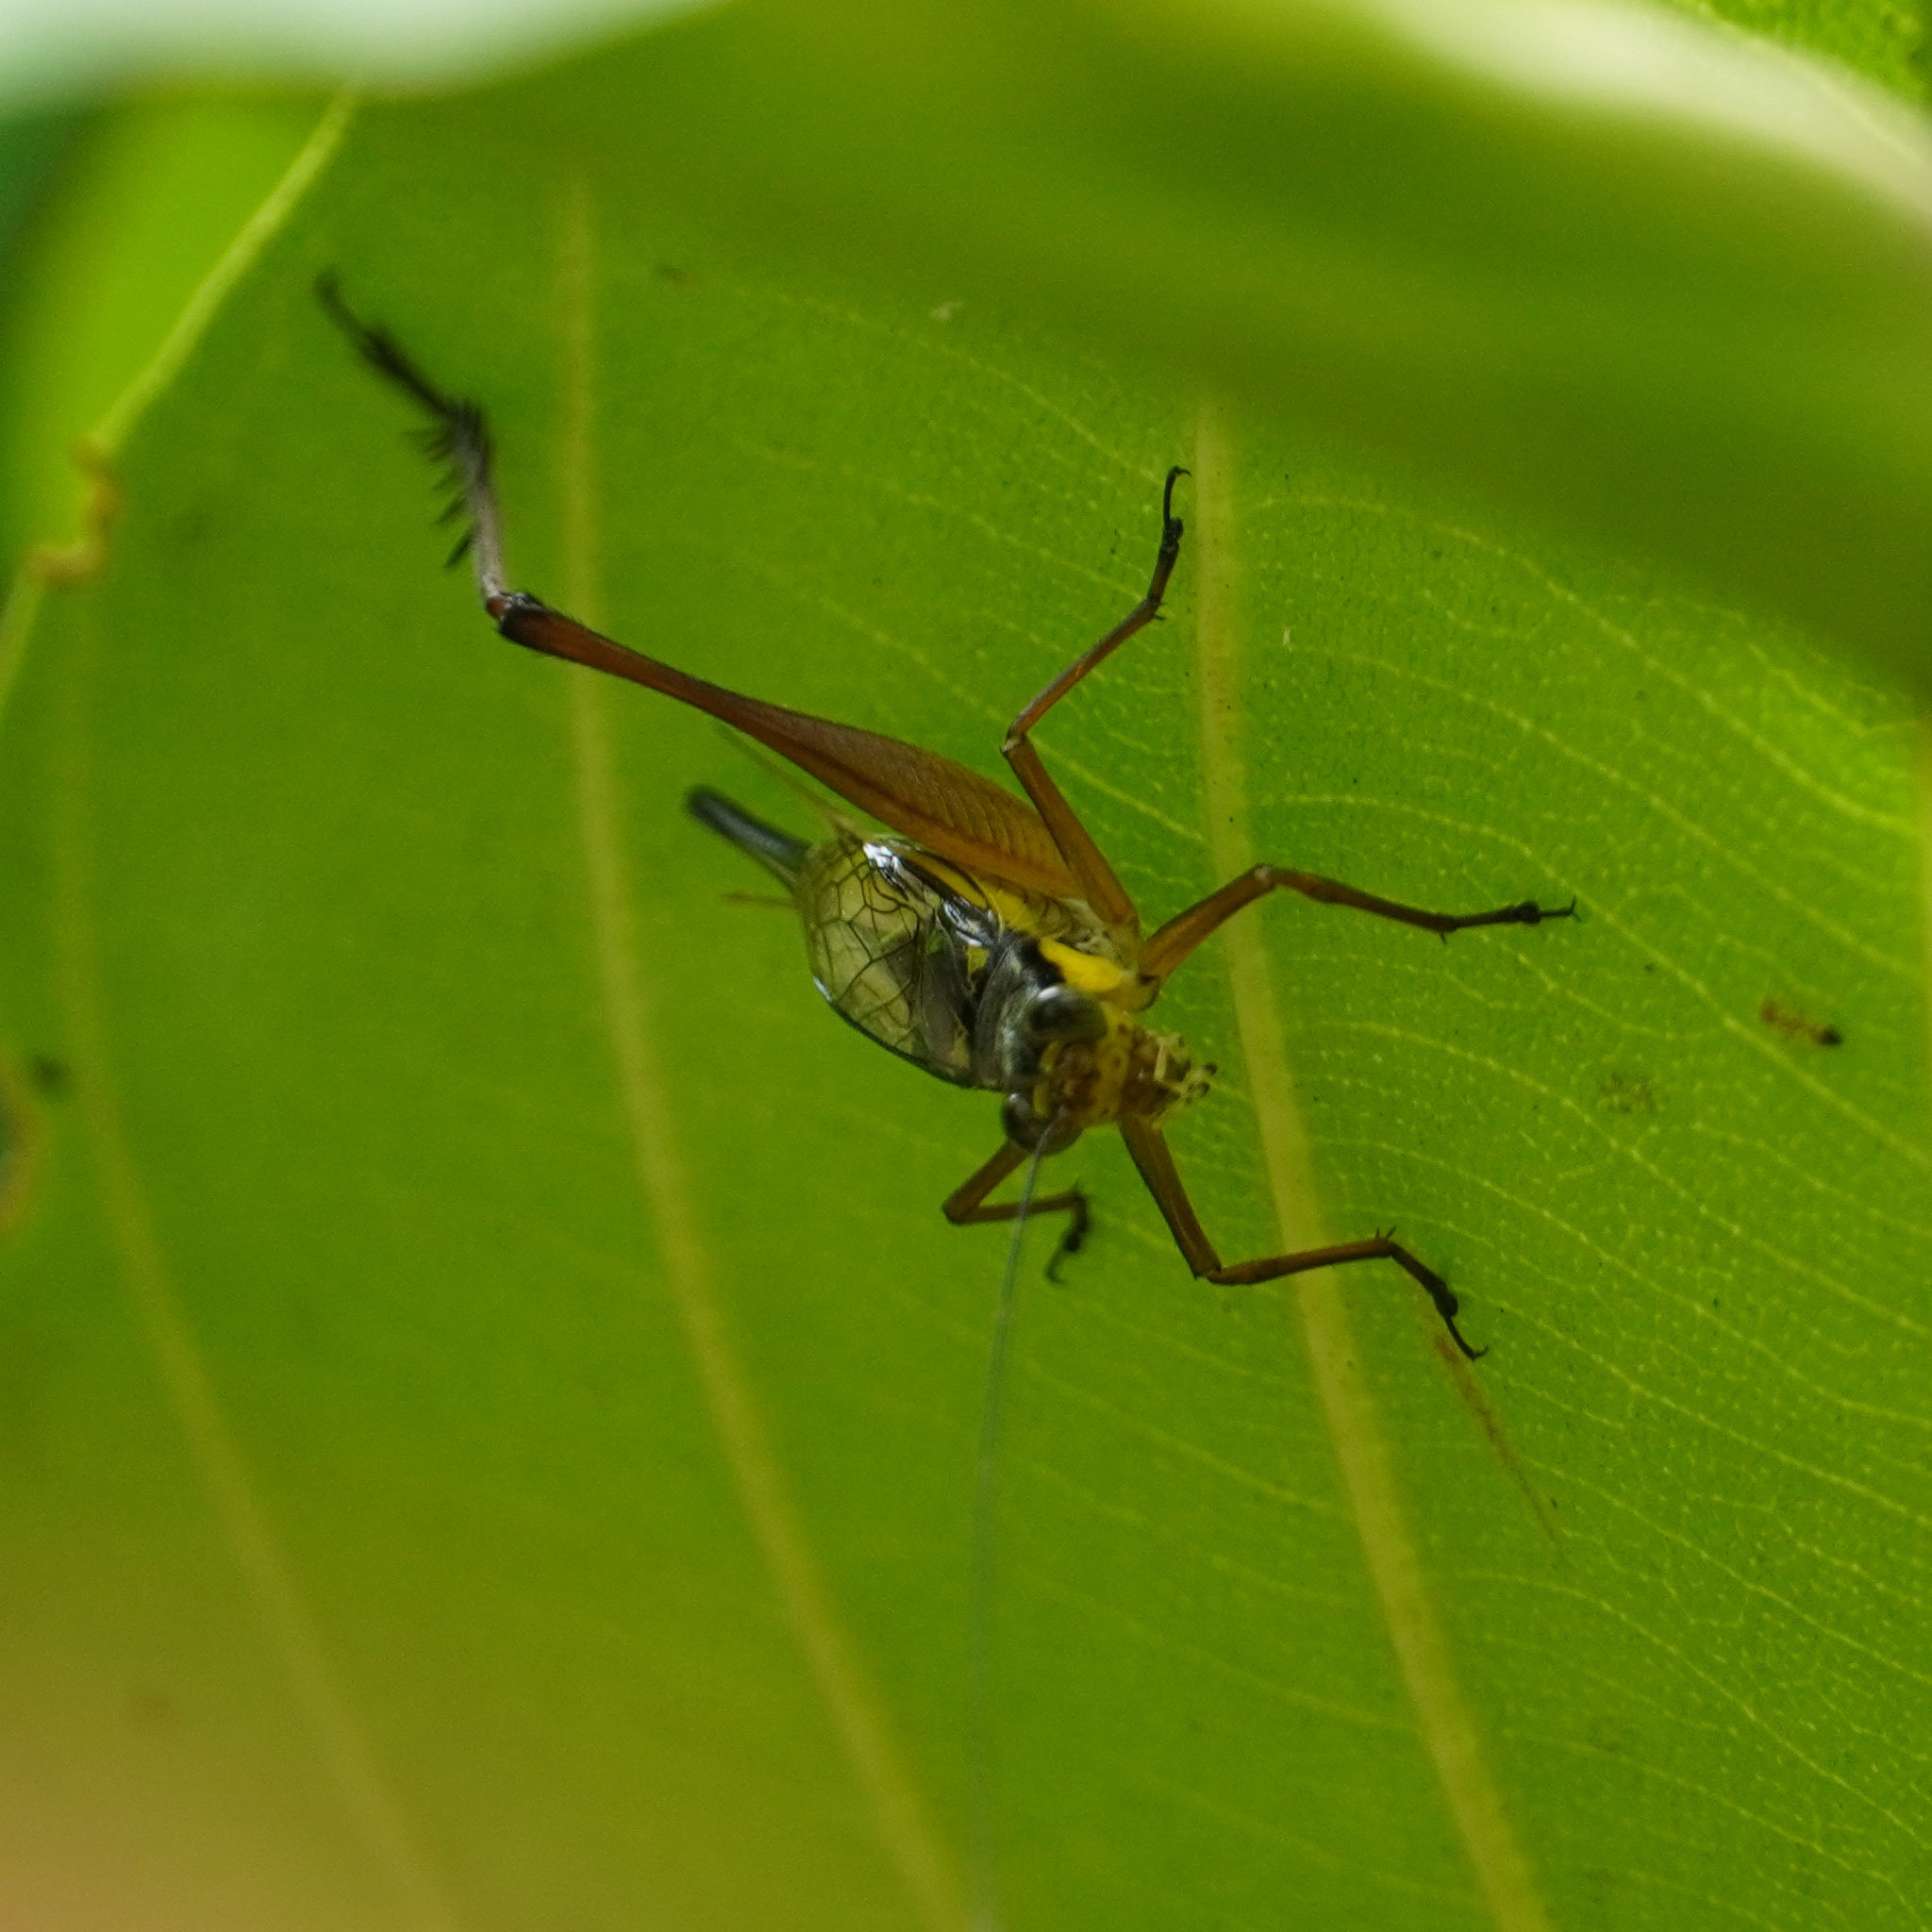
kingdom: Animalia
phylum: Arthropoda
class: Insecta
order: Orthoptera
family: Gryllidae
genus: Nisitrus
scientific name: Nisitrus malaya
